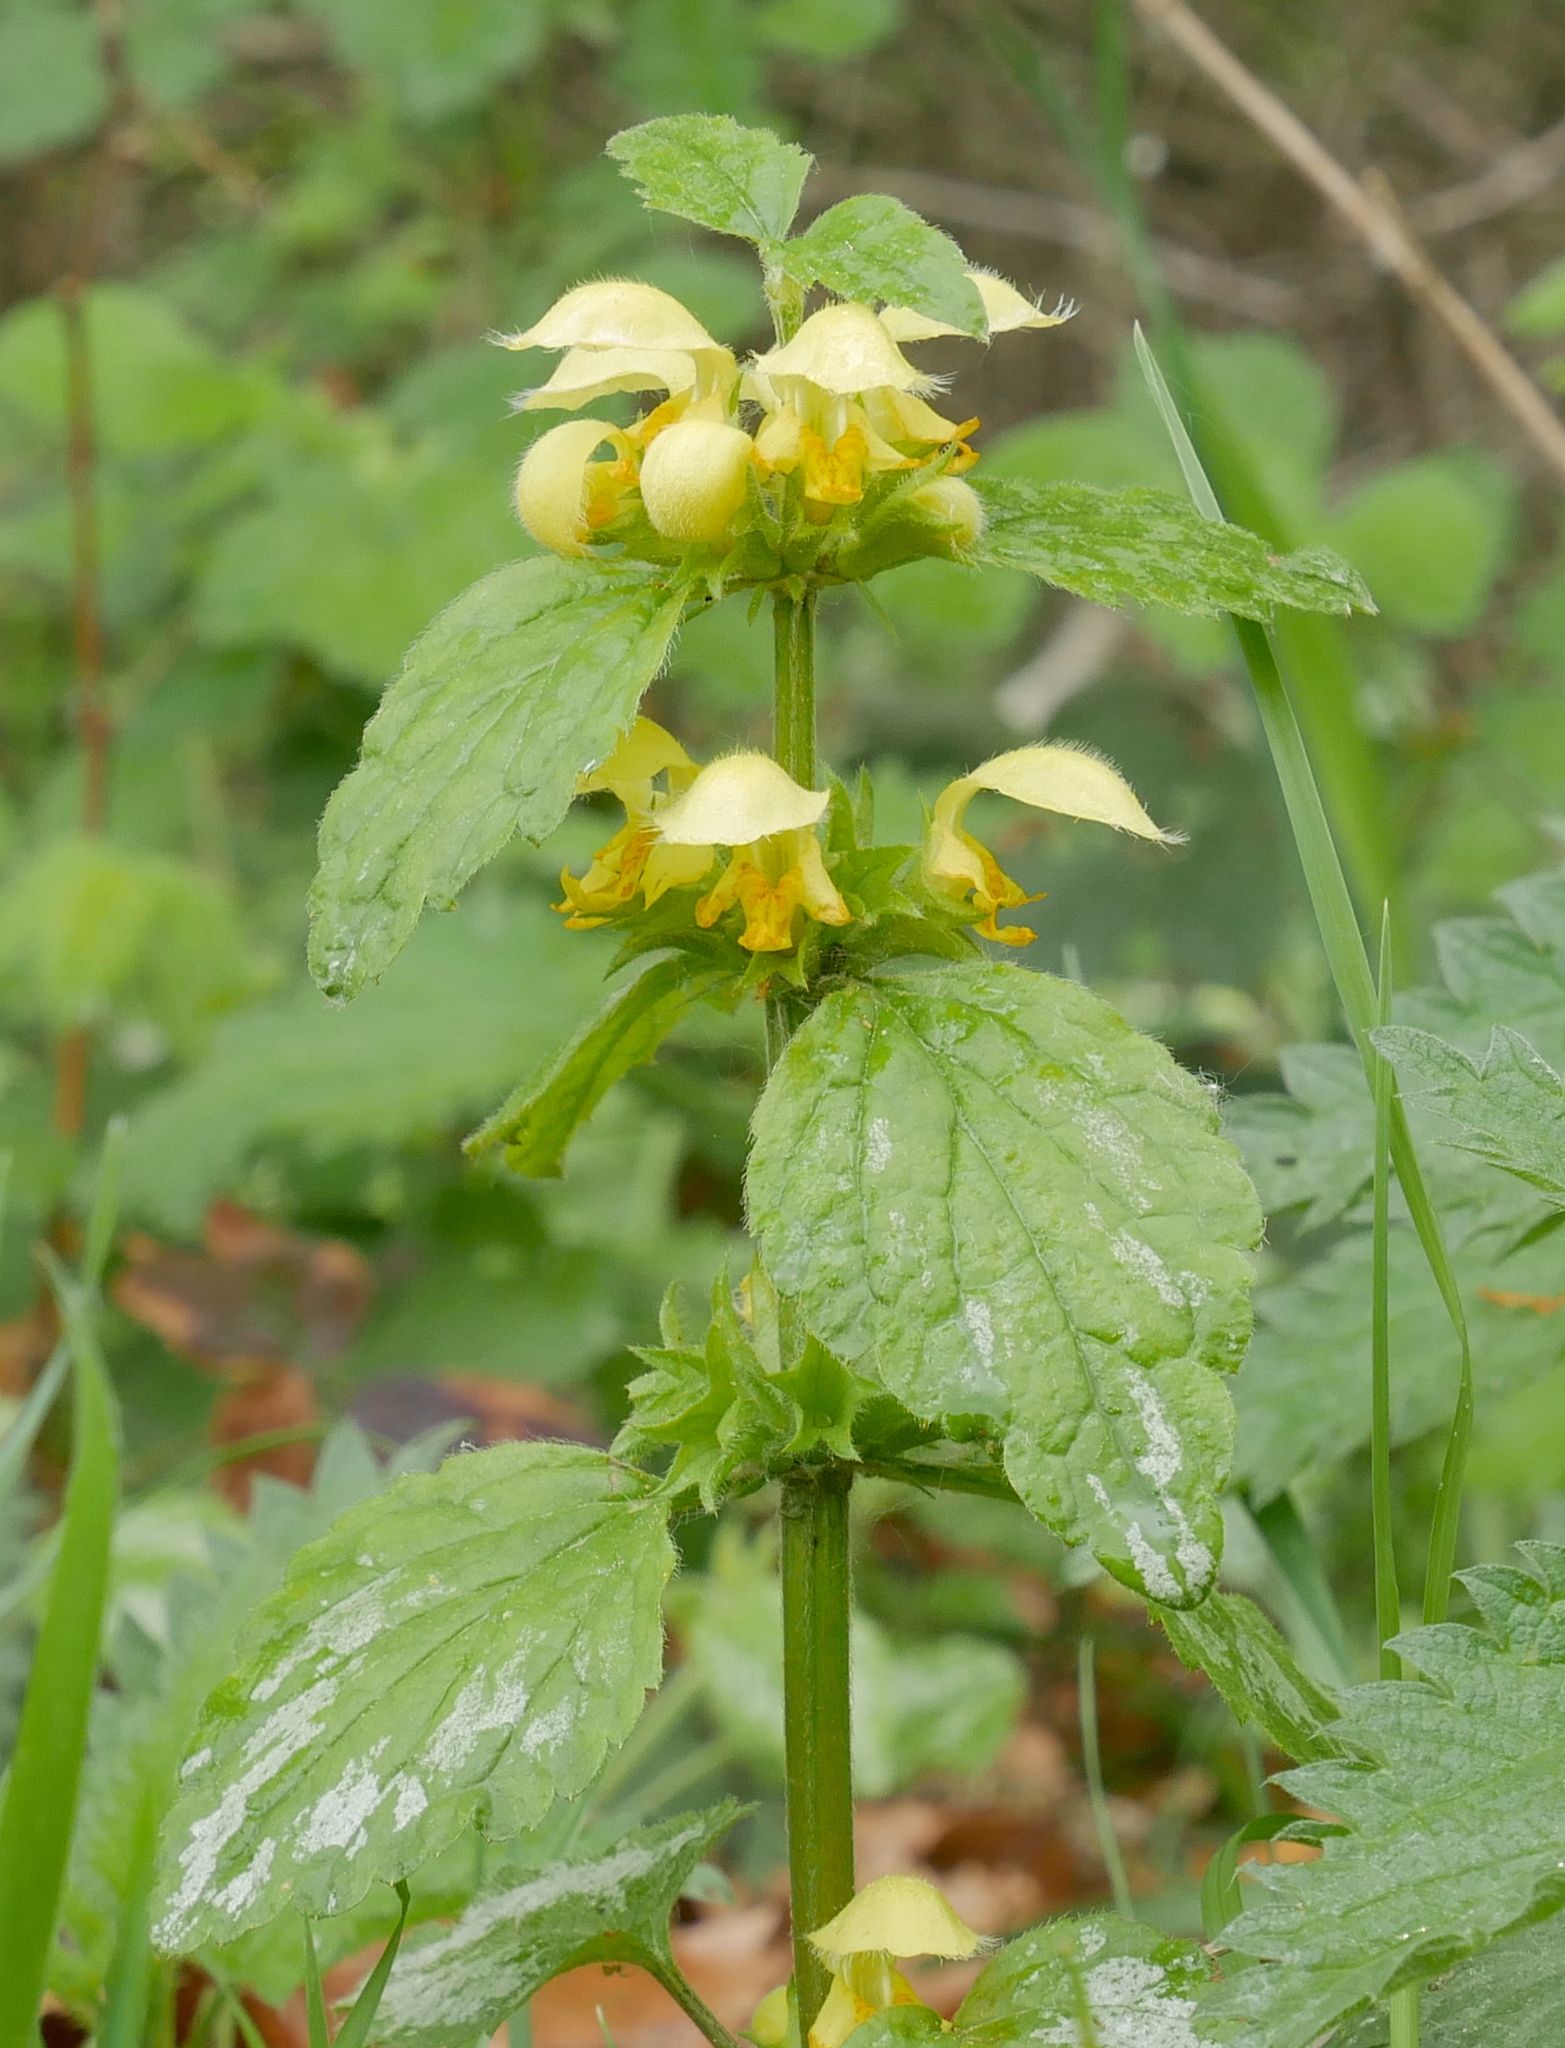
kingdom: Plantae
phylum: Tracheophyta
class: Magnoliopsida
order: Lamiales
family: Lamiaceae
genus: Lamium
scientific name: Lamium galeobdolon
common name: Yellow archangel
